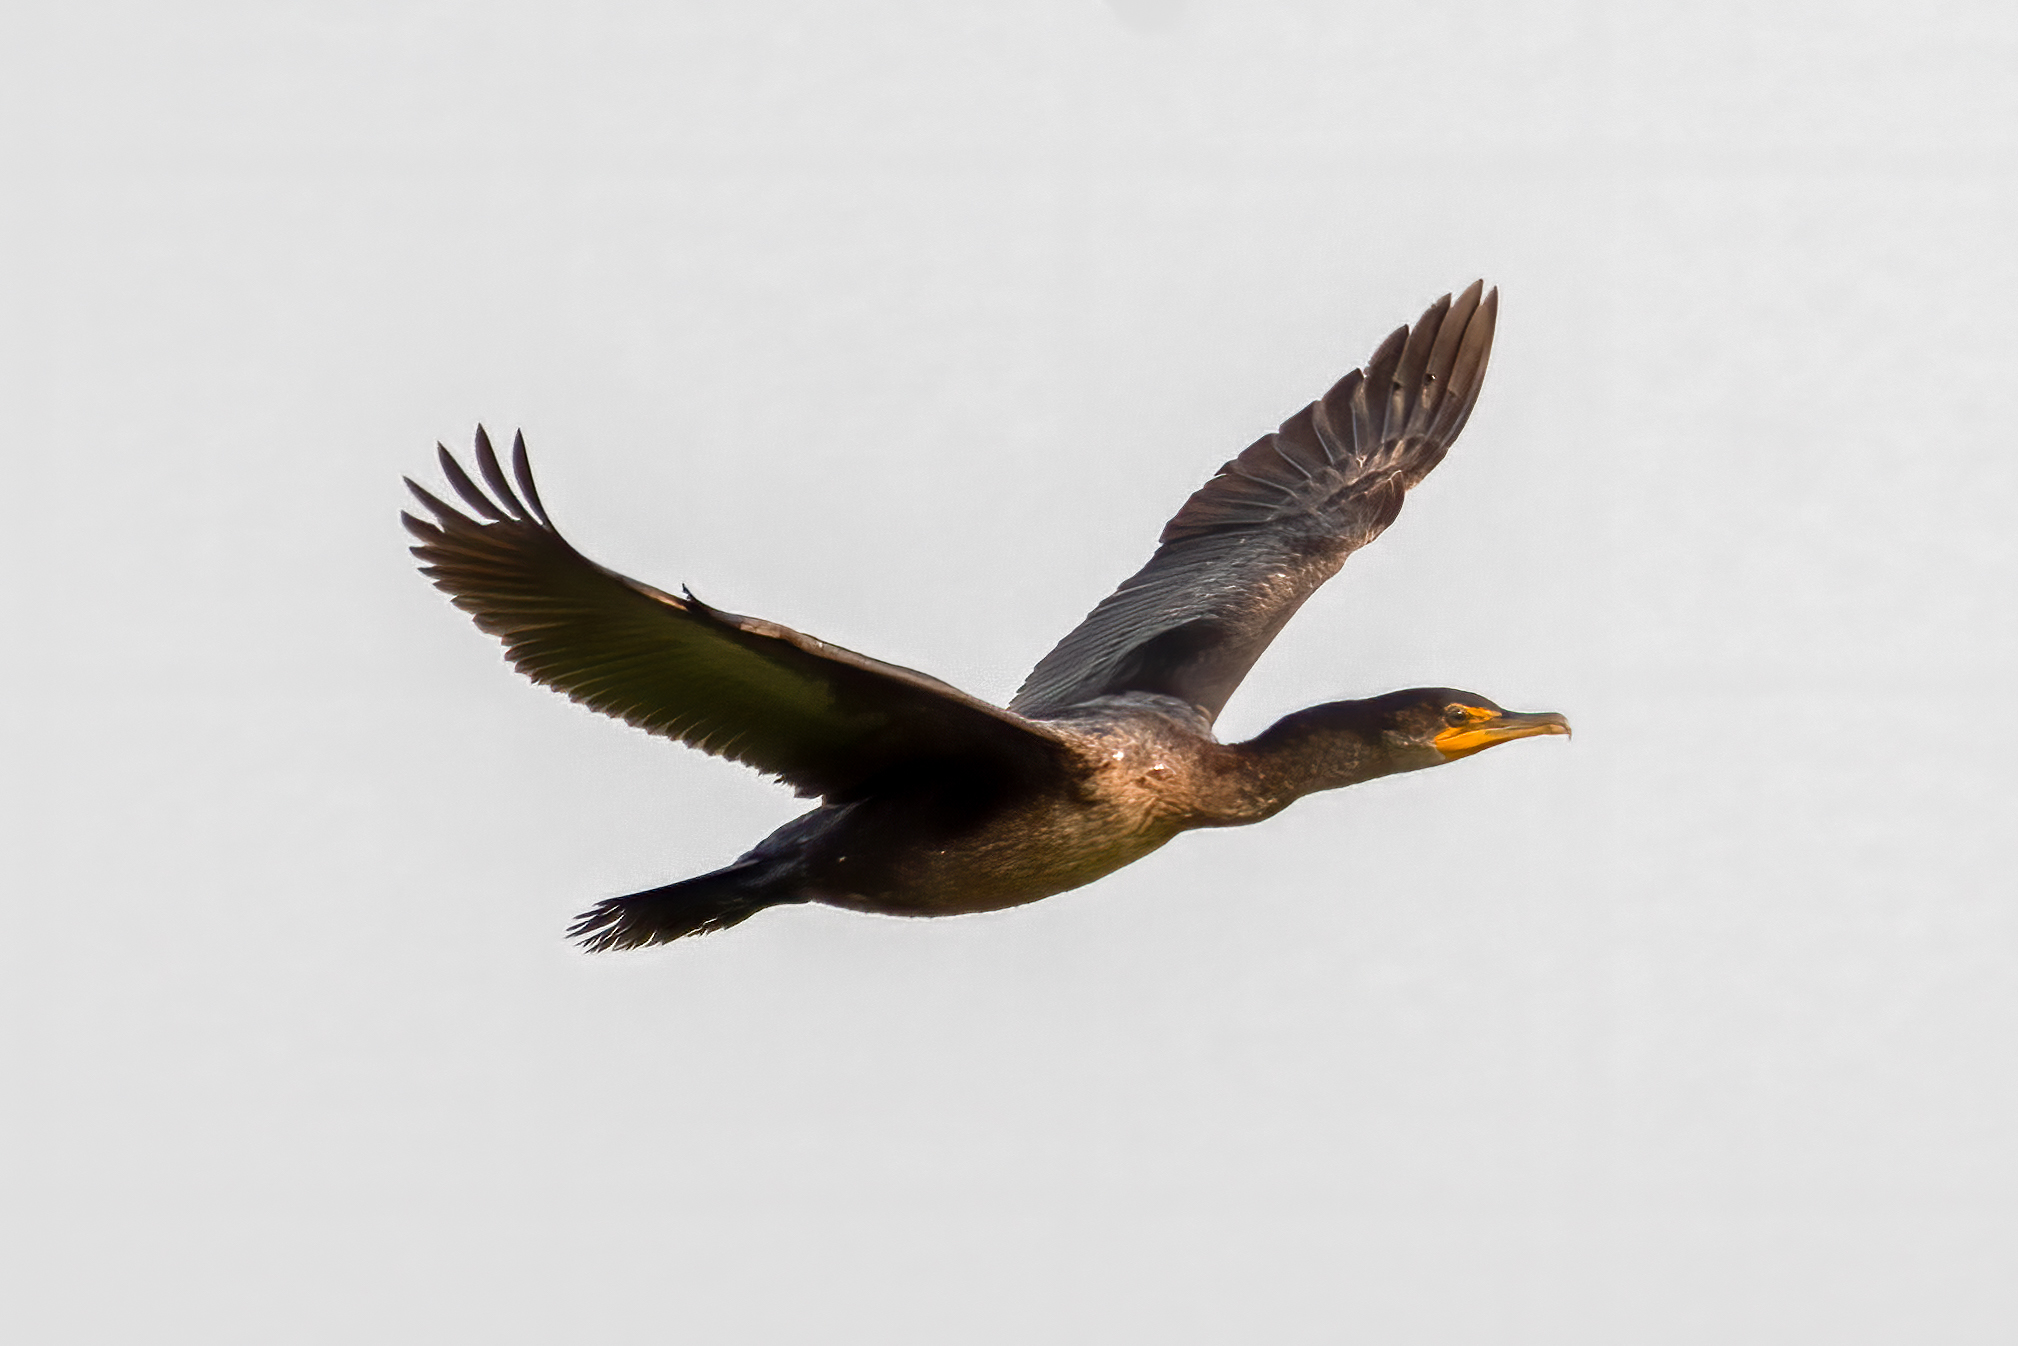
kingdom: Animalia
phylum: Chordata
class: Aves
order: Suliformes
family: Phalacrocoracidae
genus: Phalacrocorax
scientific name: Phalacrocorax auritus
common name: Double-crested cormorant
